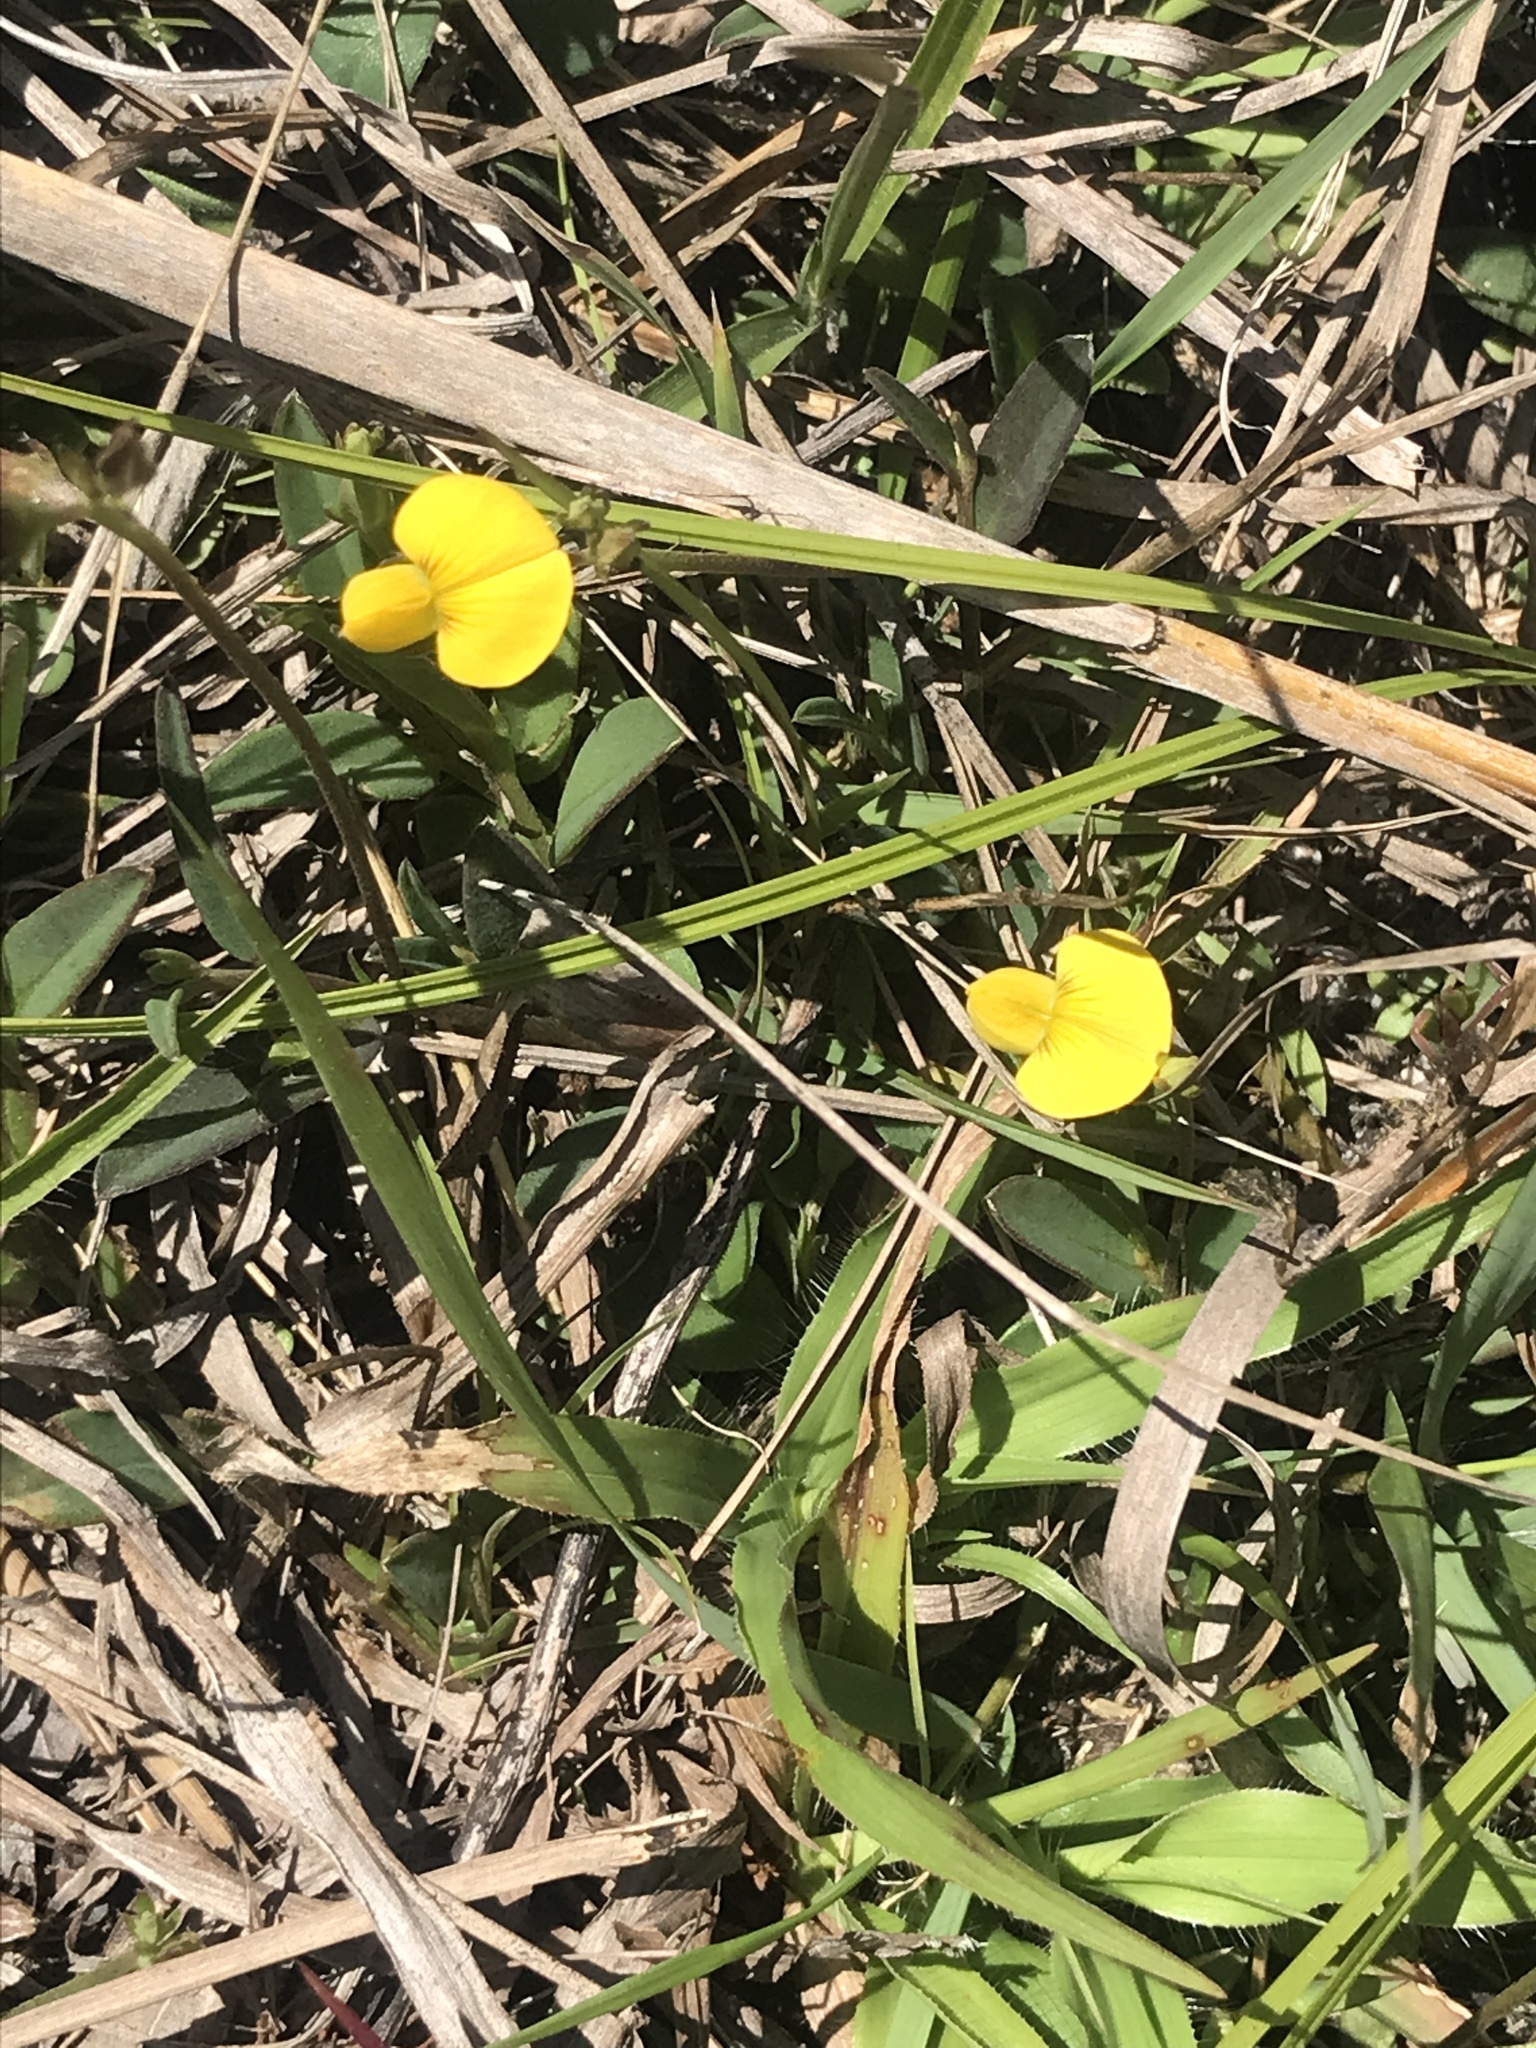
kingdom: Plantae
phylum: Tracheophyta
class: Magnoliopsida
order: Fabales
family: Fabaceae
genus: Crotalaria
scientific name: Crotalaria rotundifolia
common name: Prostrate rattlebox
